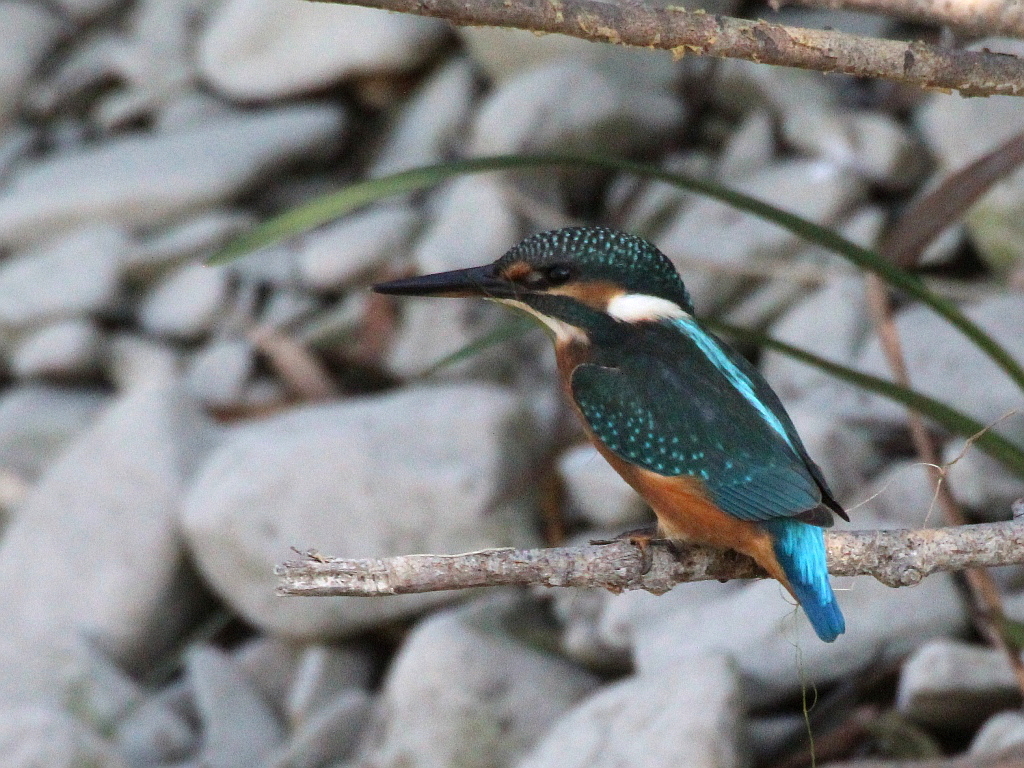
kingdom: Animalia
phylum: Chordata
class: Aves
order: Coraciiformes
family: Alcedinidae
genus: Alcedo
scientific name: Alcedo atthis
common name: Common kingfisher
